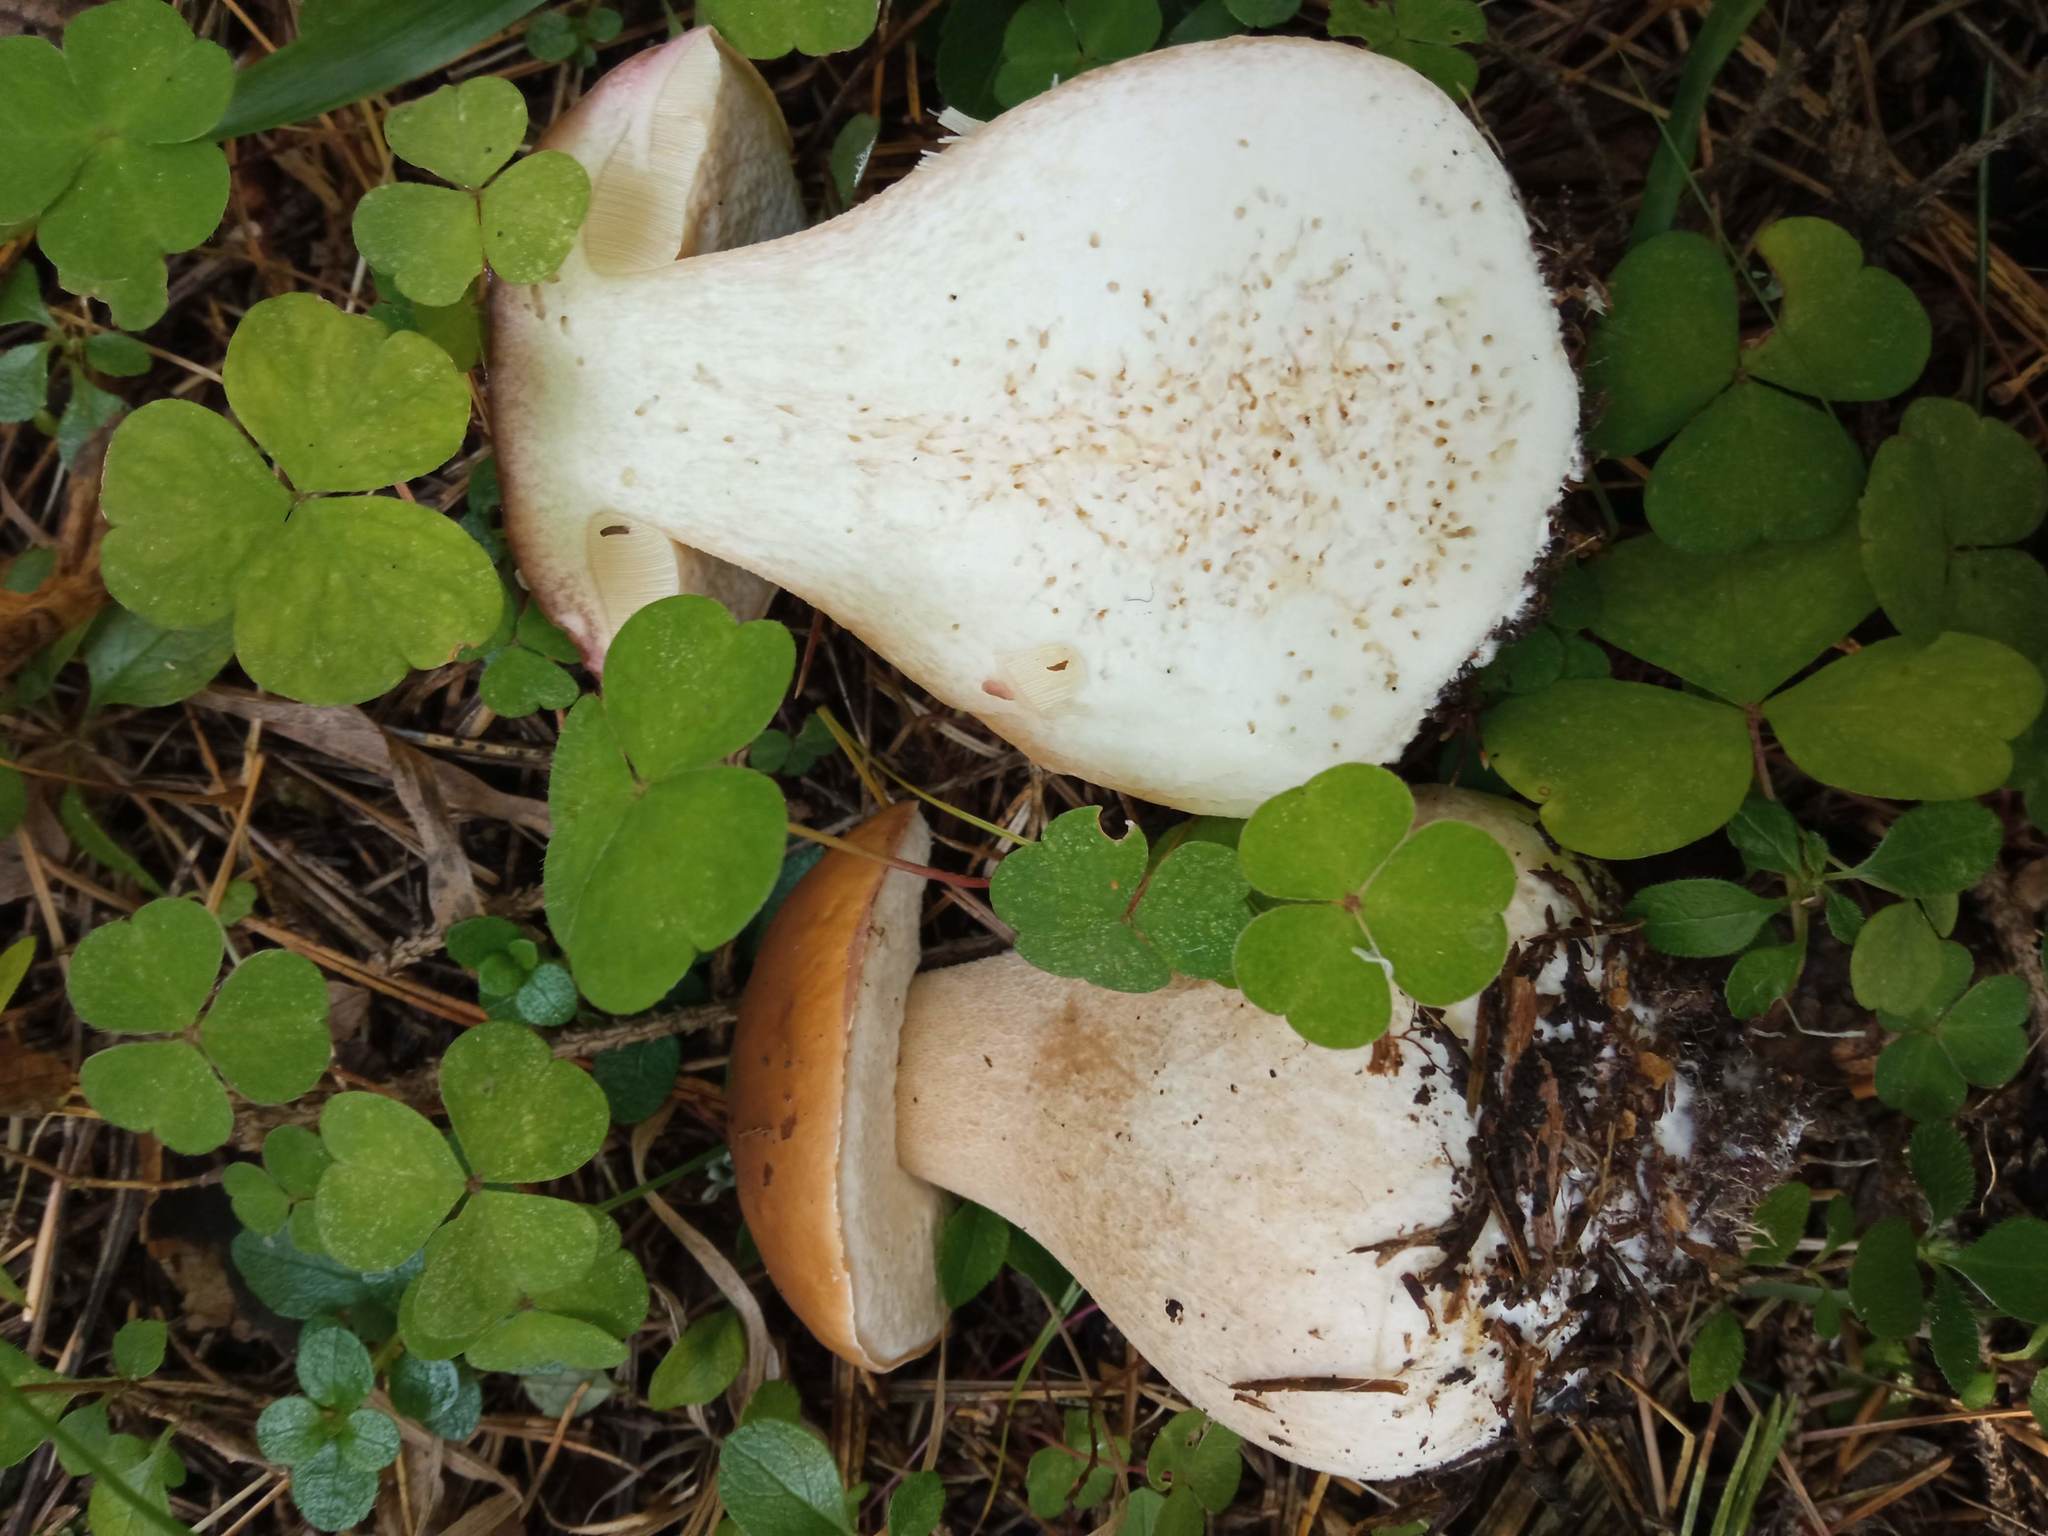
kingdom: Fungi
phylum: Basidiomycota
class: Agaricomycetes
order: Boletales
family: Boletaceae
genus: Boletus
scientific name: Boletus edulis
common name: Cep
